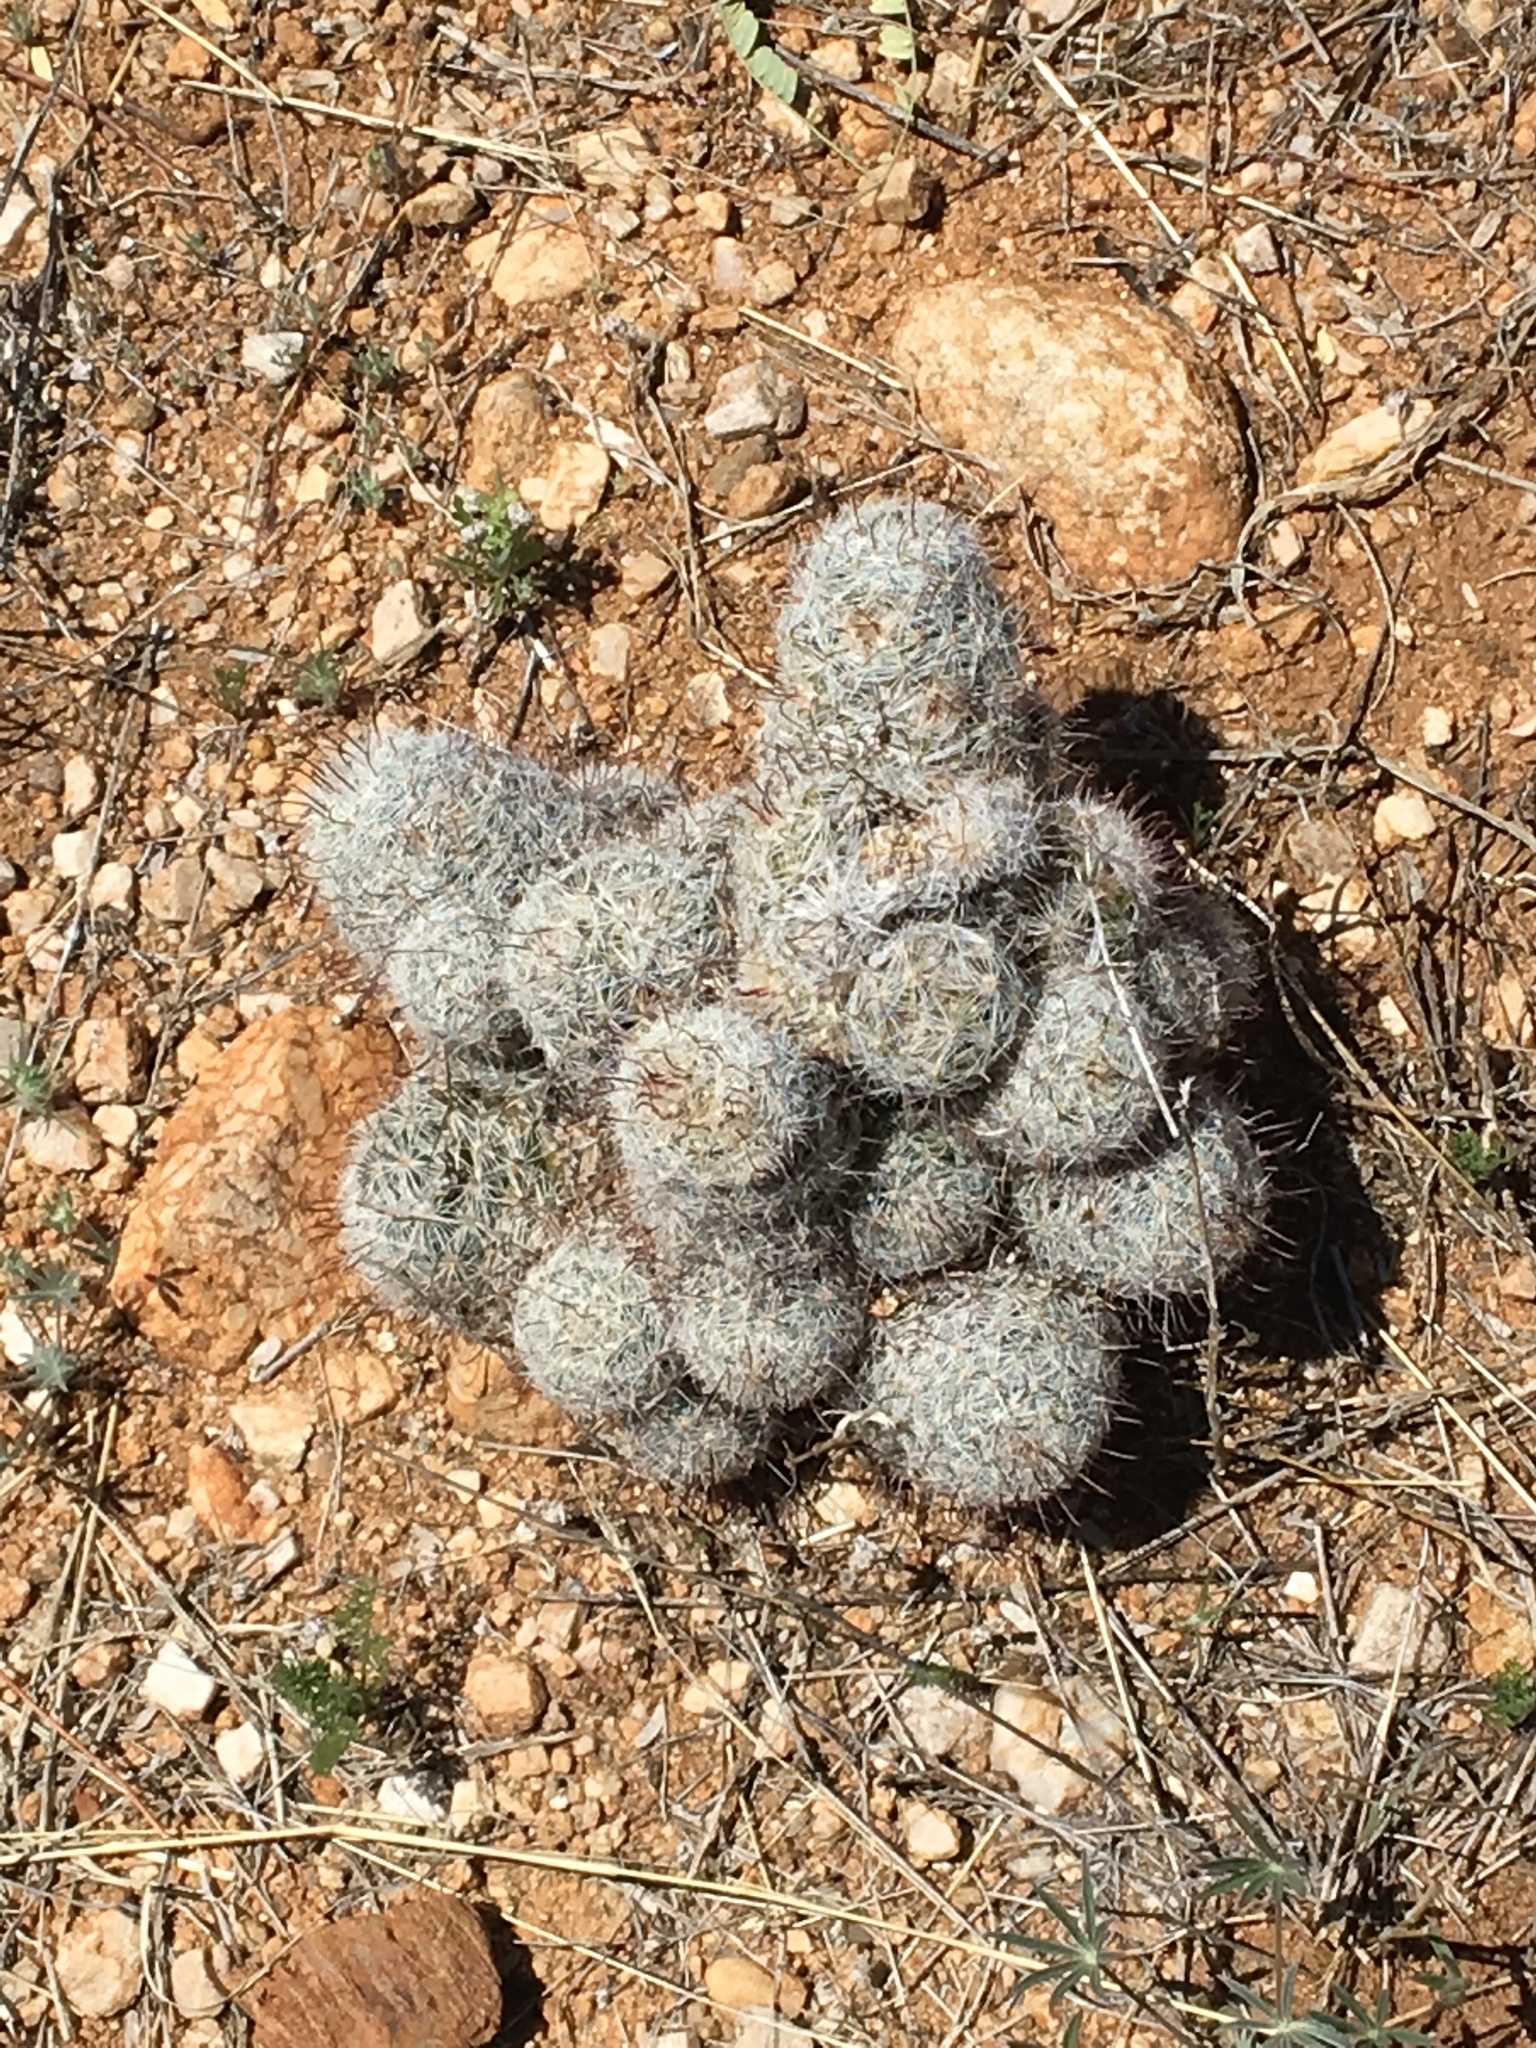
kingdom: Plantae
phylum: Tracheophyta
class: Magnoliopsida
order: Caryophyllales
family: Cactaceae
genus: Cochemiea
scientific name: Cochemiea grahamii
